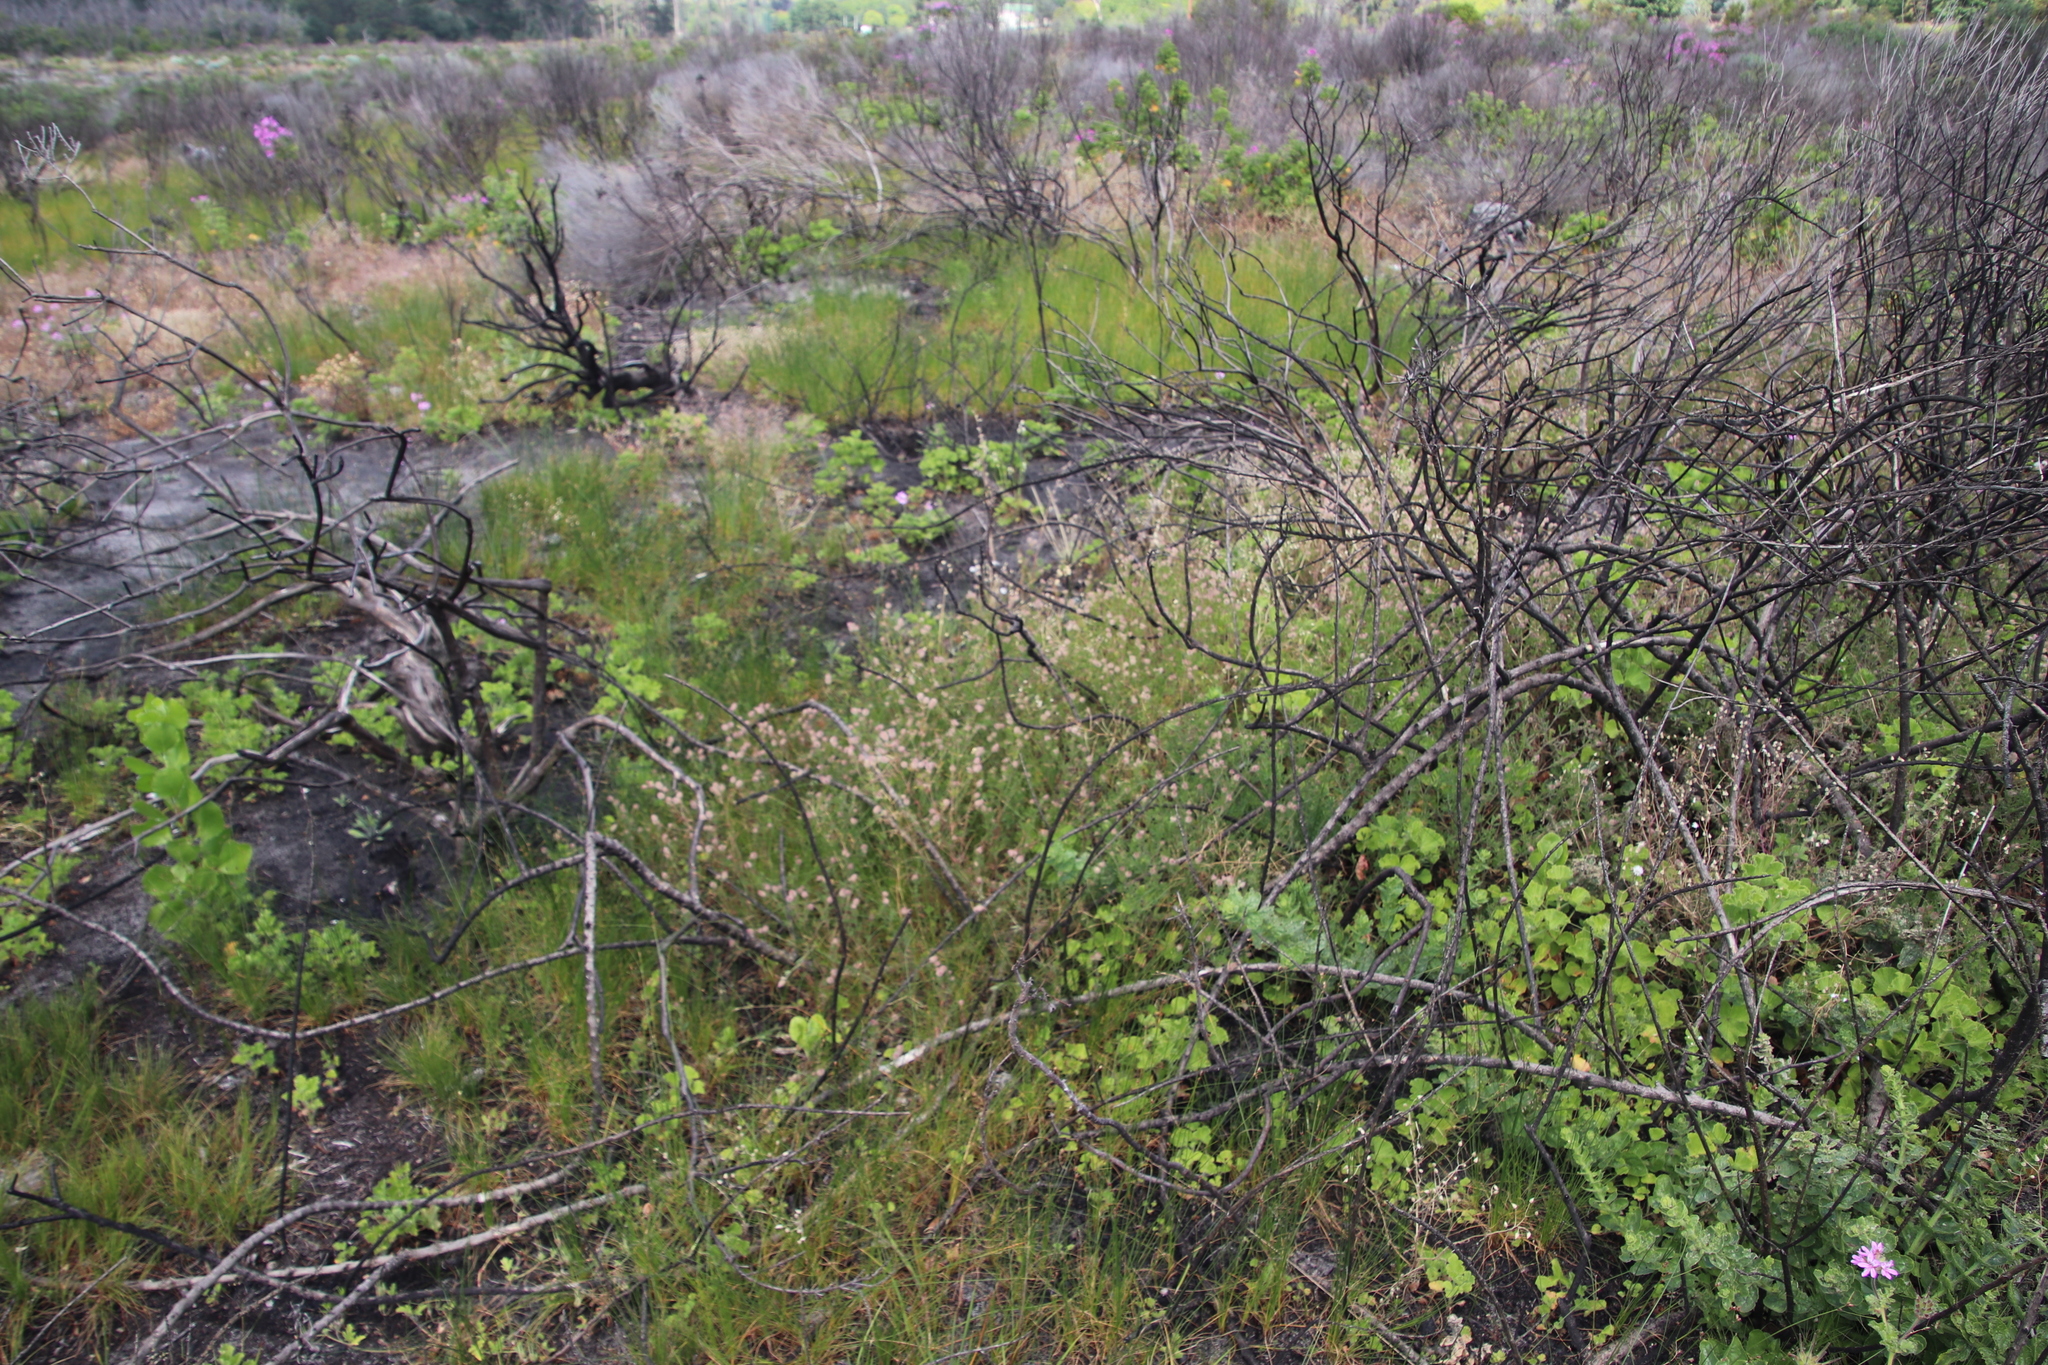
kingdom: Plantae
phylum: Tracheophyta
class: Magnoliopsida
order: Fabales
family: Fabaceae
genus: Trifolium
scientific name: Trifolium arvense
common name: Hare's-foot clover
